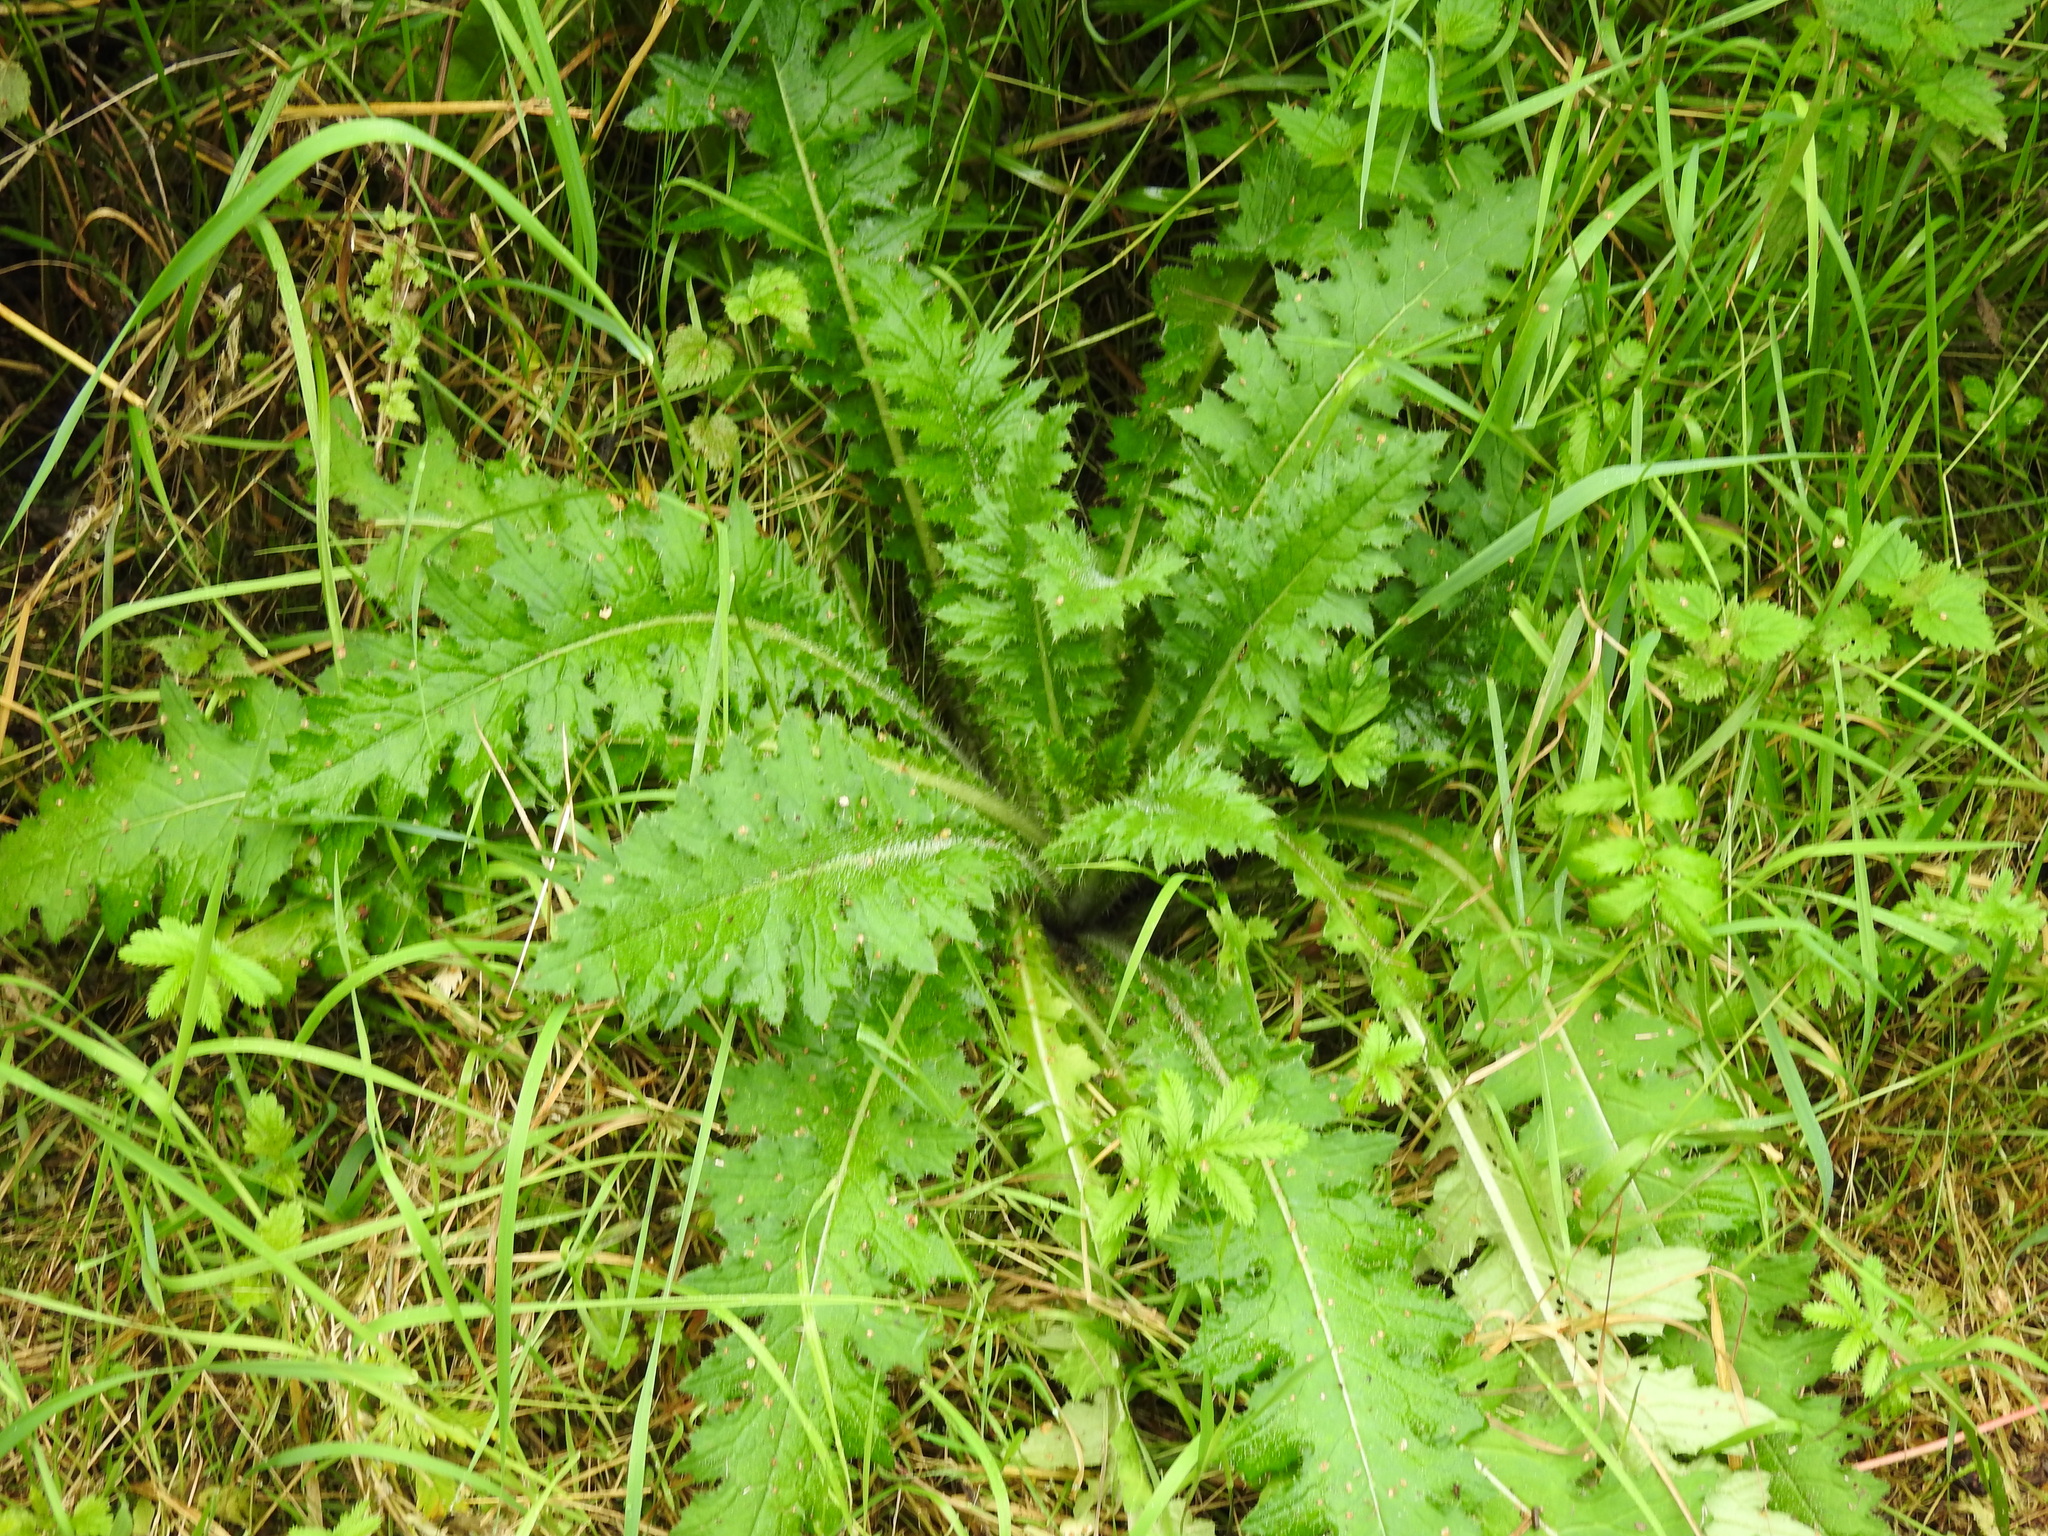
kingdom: Plantae
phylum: Tracheophyta
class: Magnoliopsida
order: Asterales
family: Asteraceae
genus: Cirsium
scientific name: Cirsium palustre
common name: Marsh thistle
